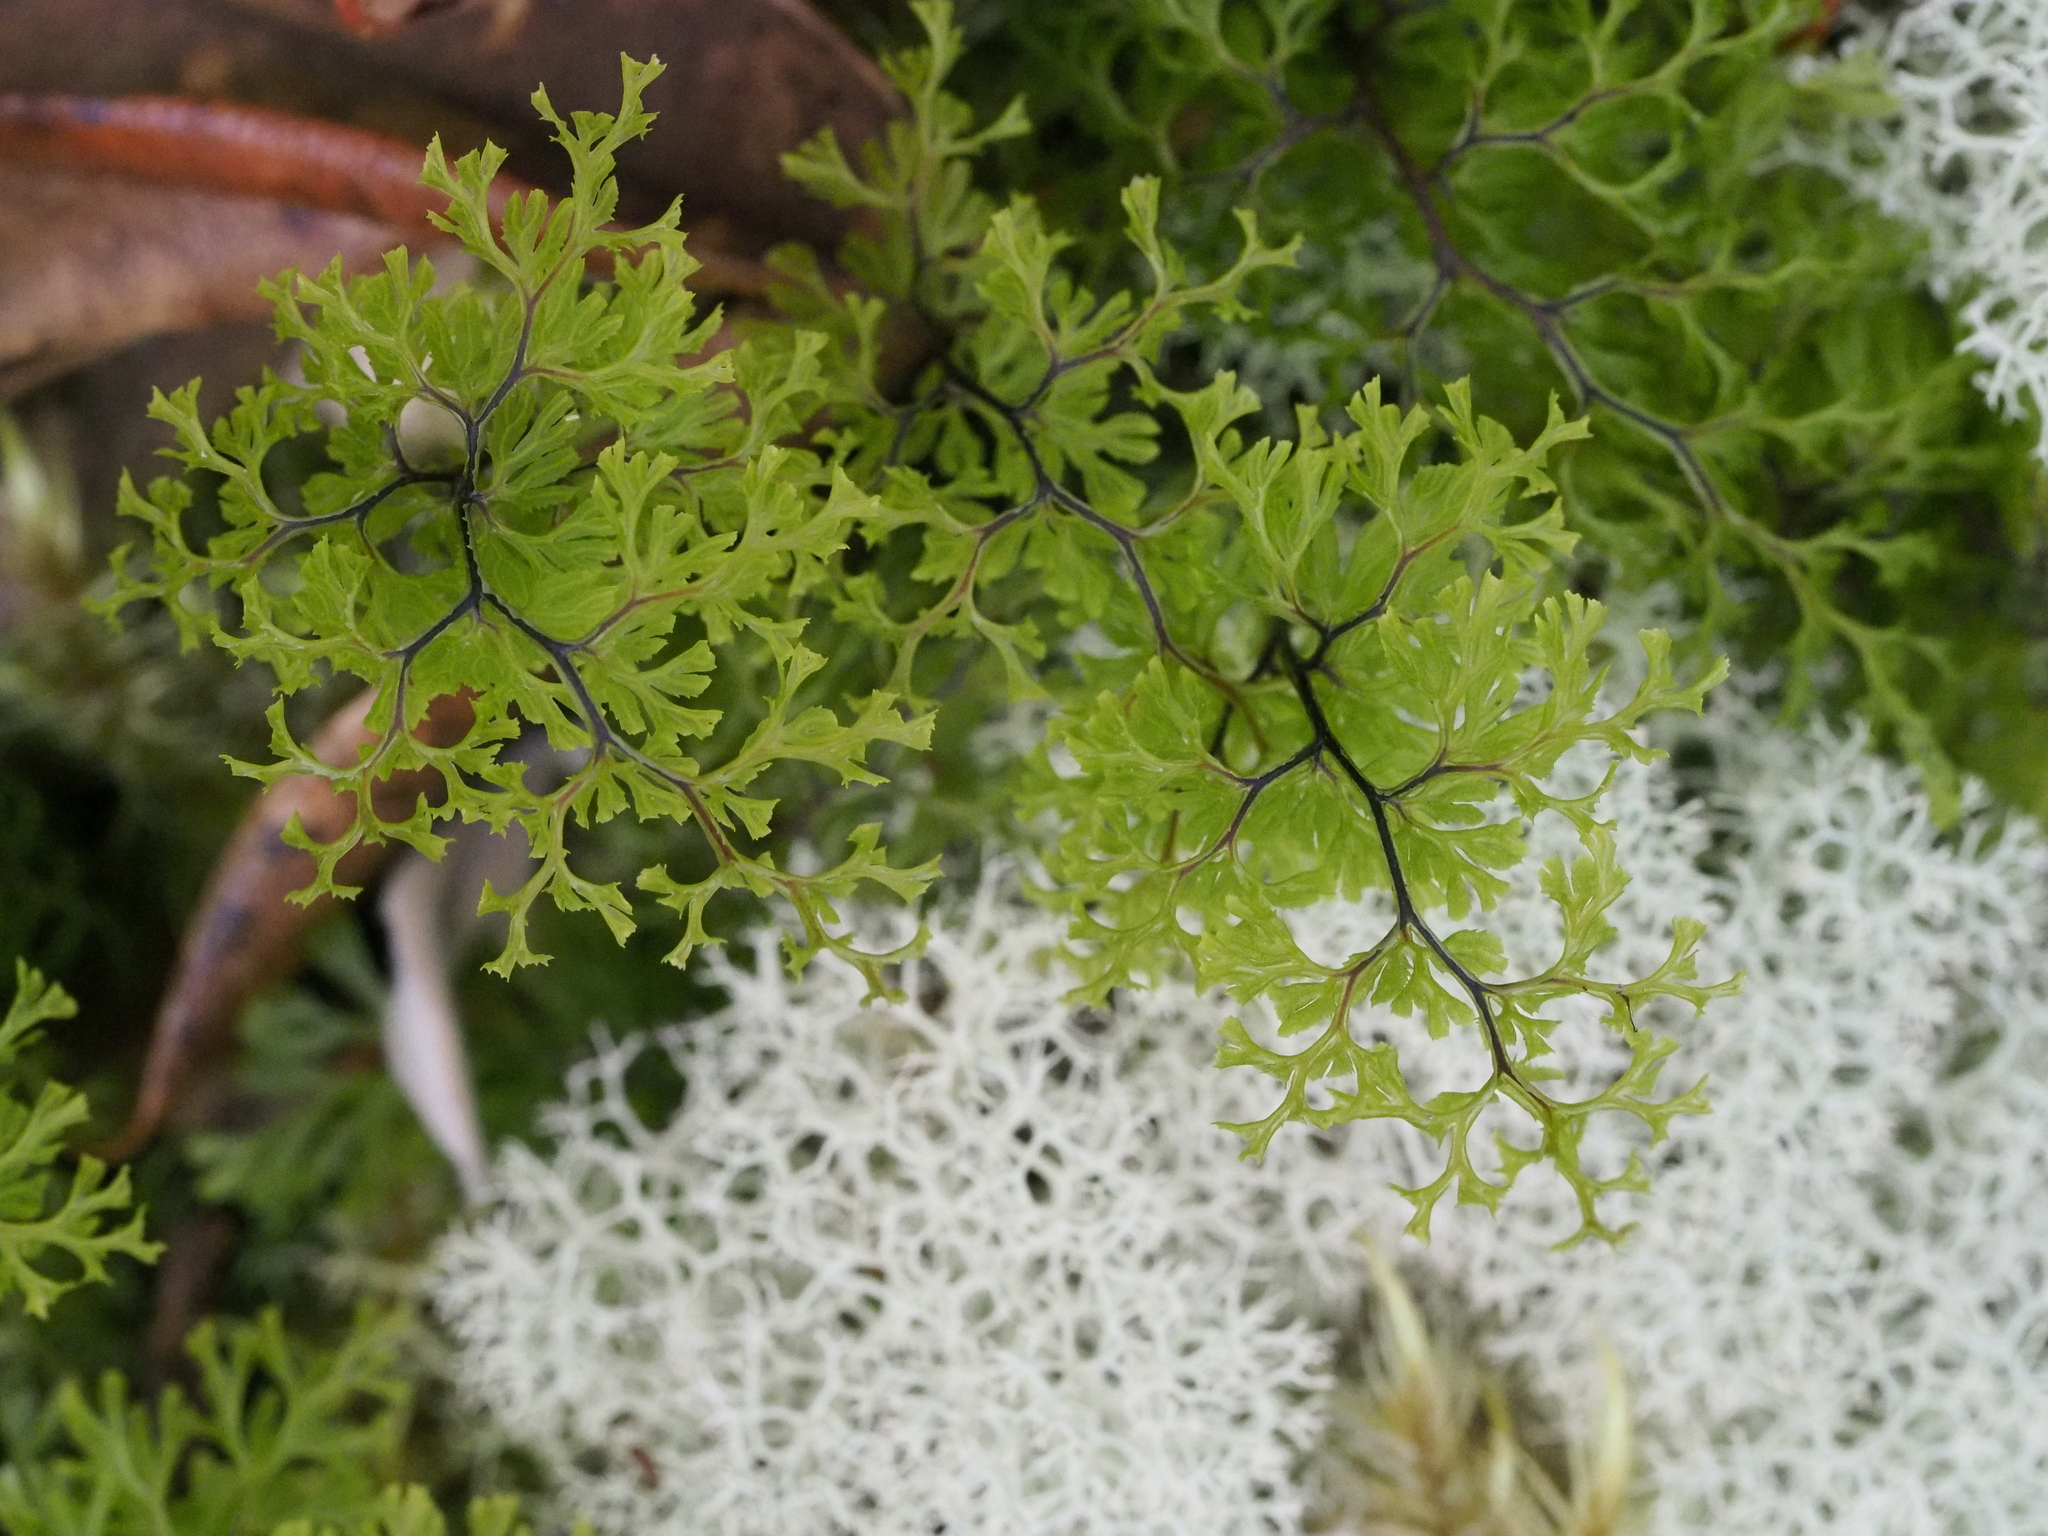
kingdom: Plantae
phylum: Tracheophyta
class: Polypodiopsida
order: Hymenophyllales
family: Hymenophyllaceae
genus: Hymenophyllum
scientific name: Hymenophyllum multifidum
